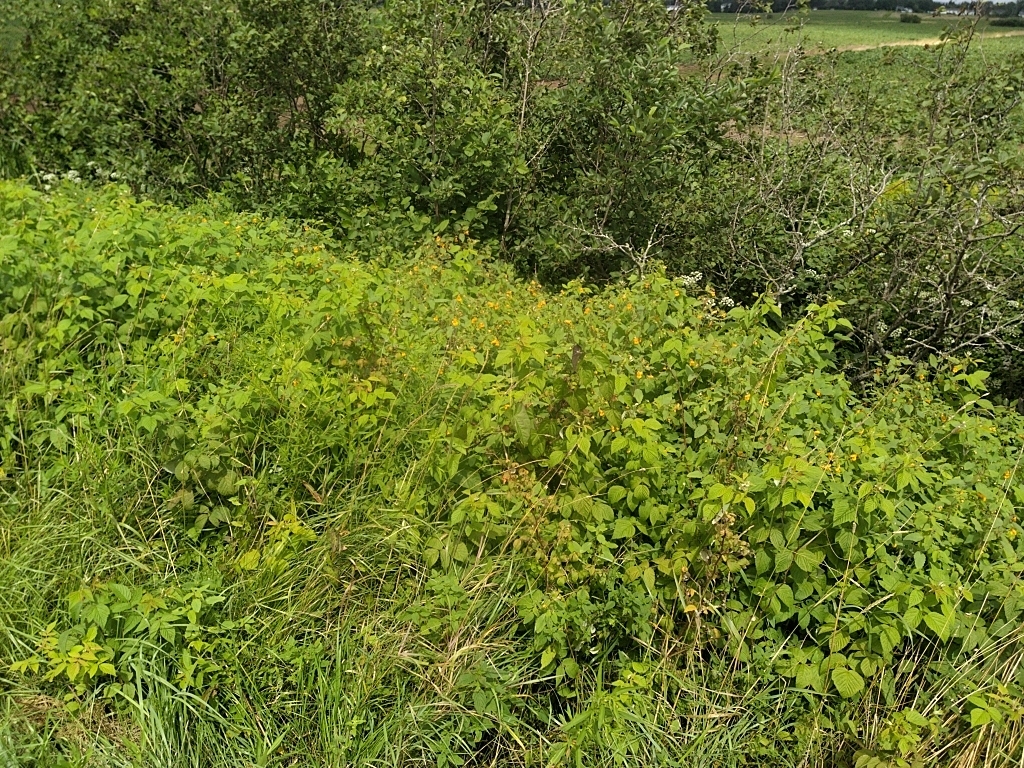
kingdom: Plantae
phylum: Tracheophyta
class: Magnoliopsida
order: Ericales
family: Balsaminaceae
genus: Impatiens
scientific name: Impatiens capensis
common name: Orange balsam
